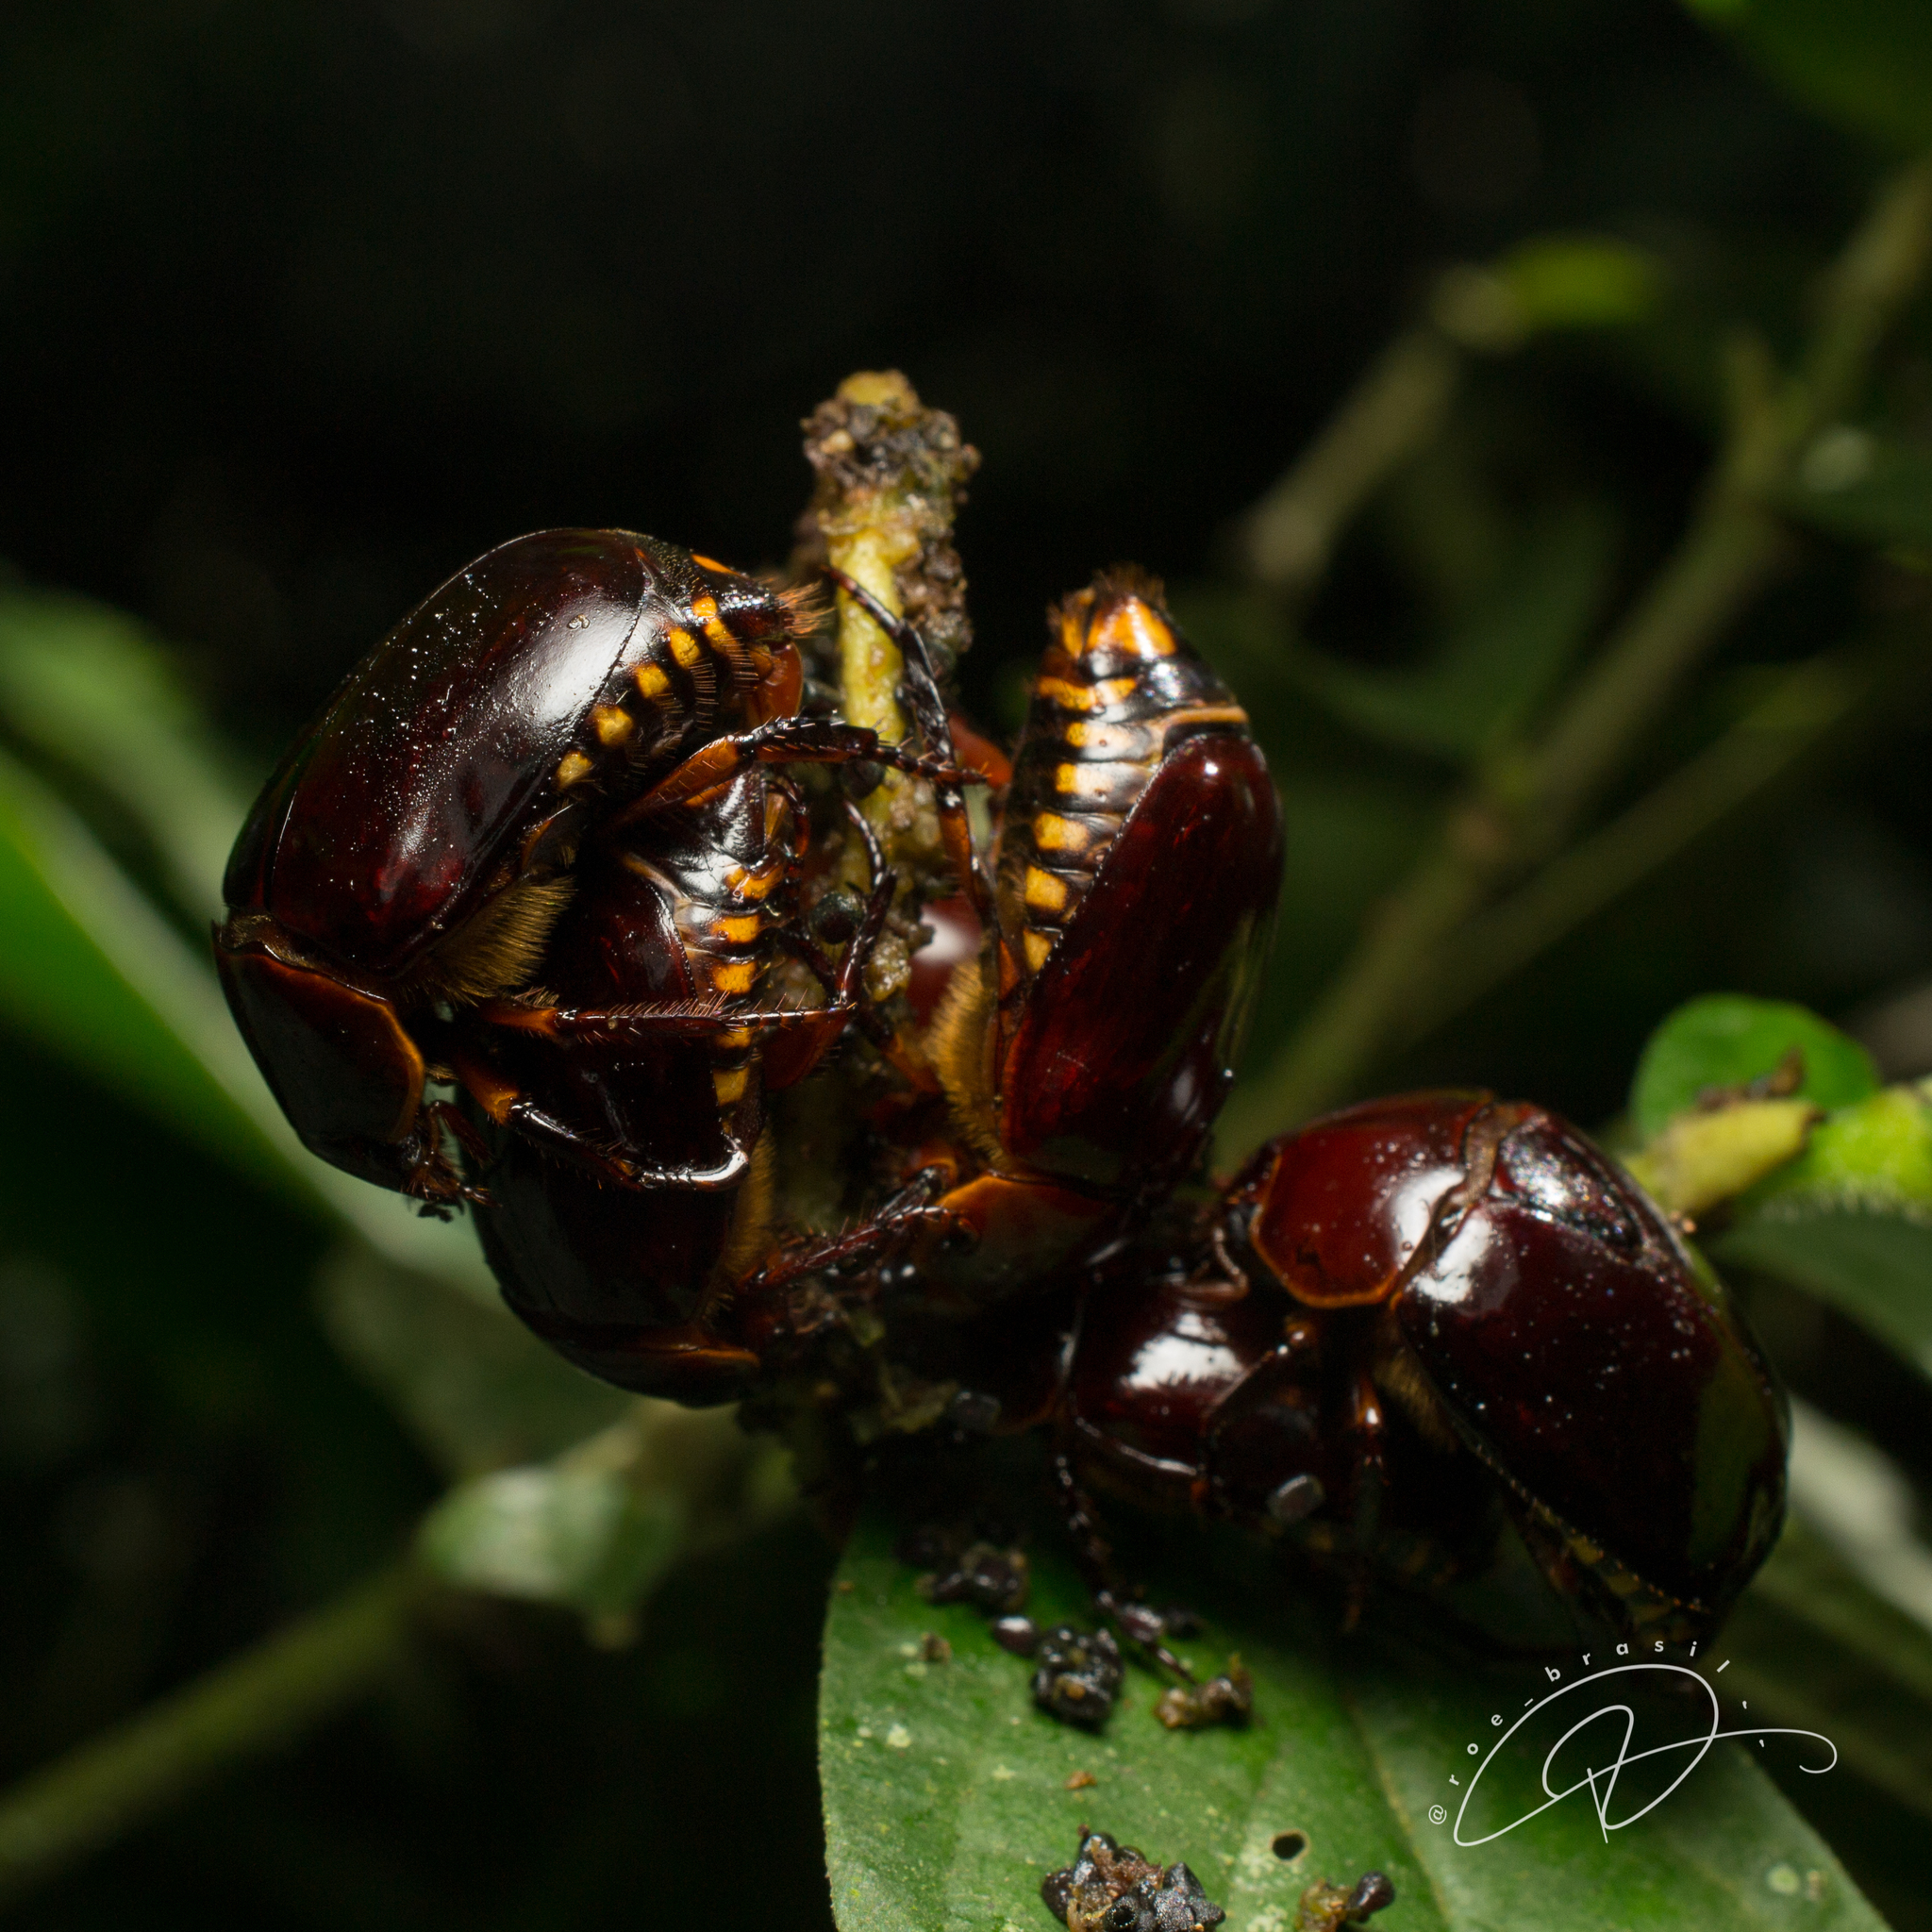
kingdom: Animalia
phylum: Arthropoda
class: Insecta
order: Coleoptera
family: Scarabaeidae
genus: Lagochile
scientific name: Lagochile bipunctata
